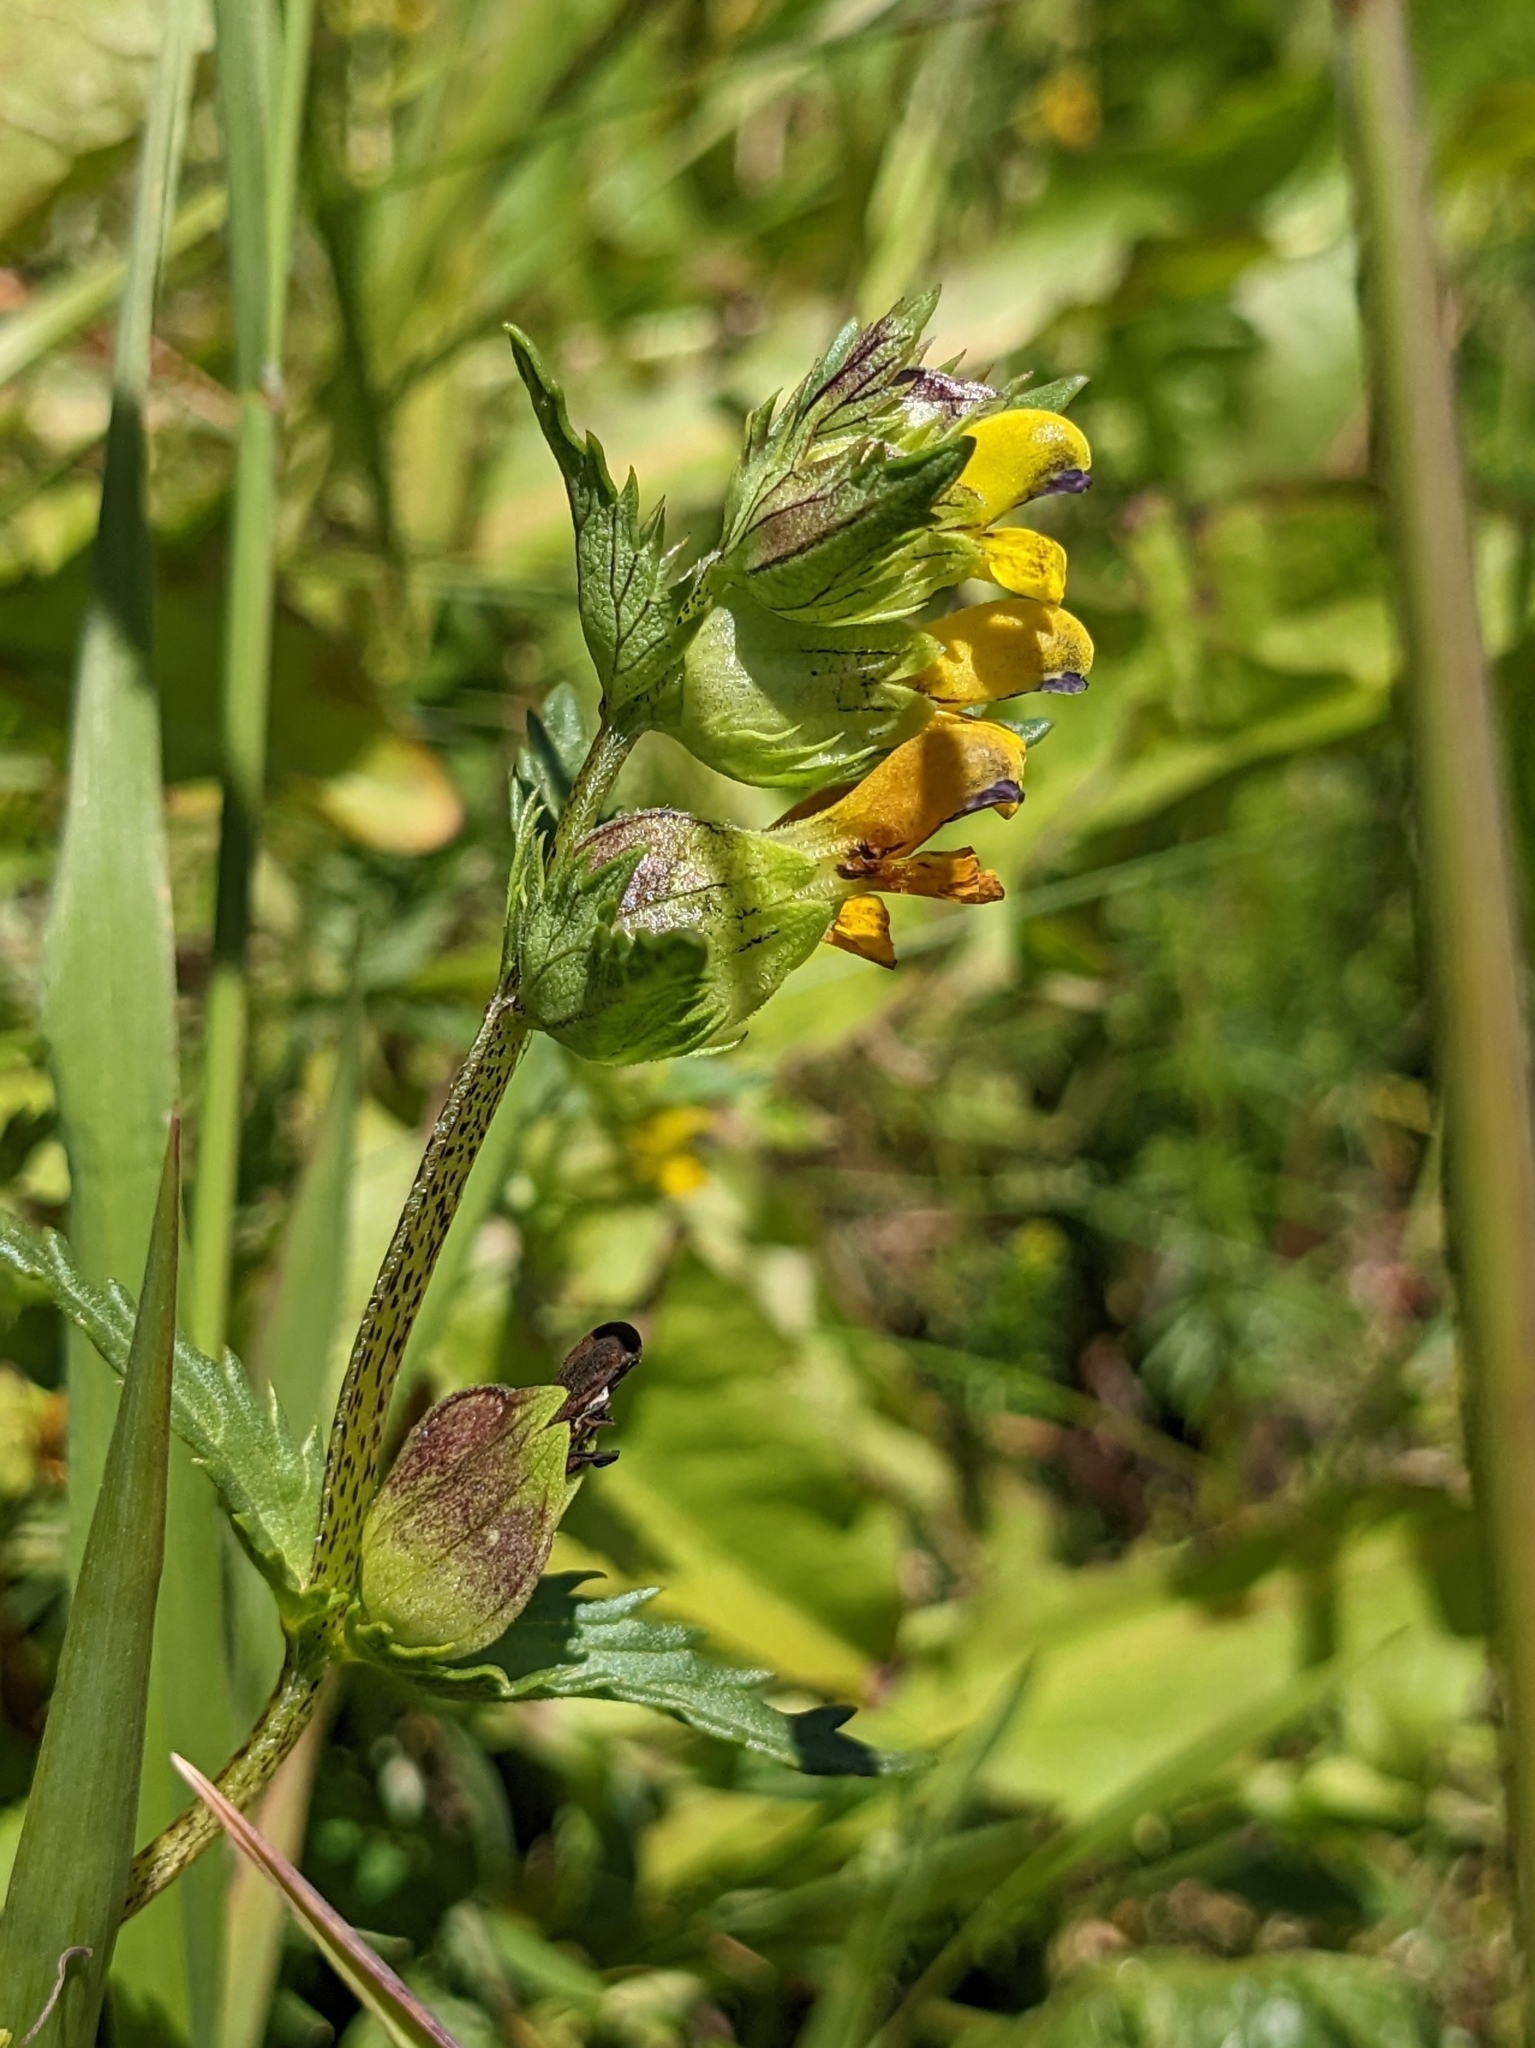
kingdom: Plantae
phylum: Tracheophyta
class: Magnoliopsida
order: Lamiales
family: Orobanchaceae
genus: Rhinanthus
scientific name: Rhinanthus minor
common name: Yellow-rattle
